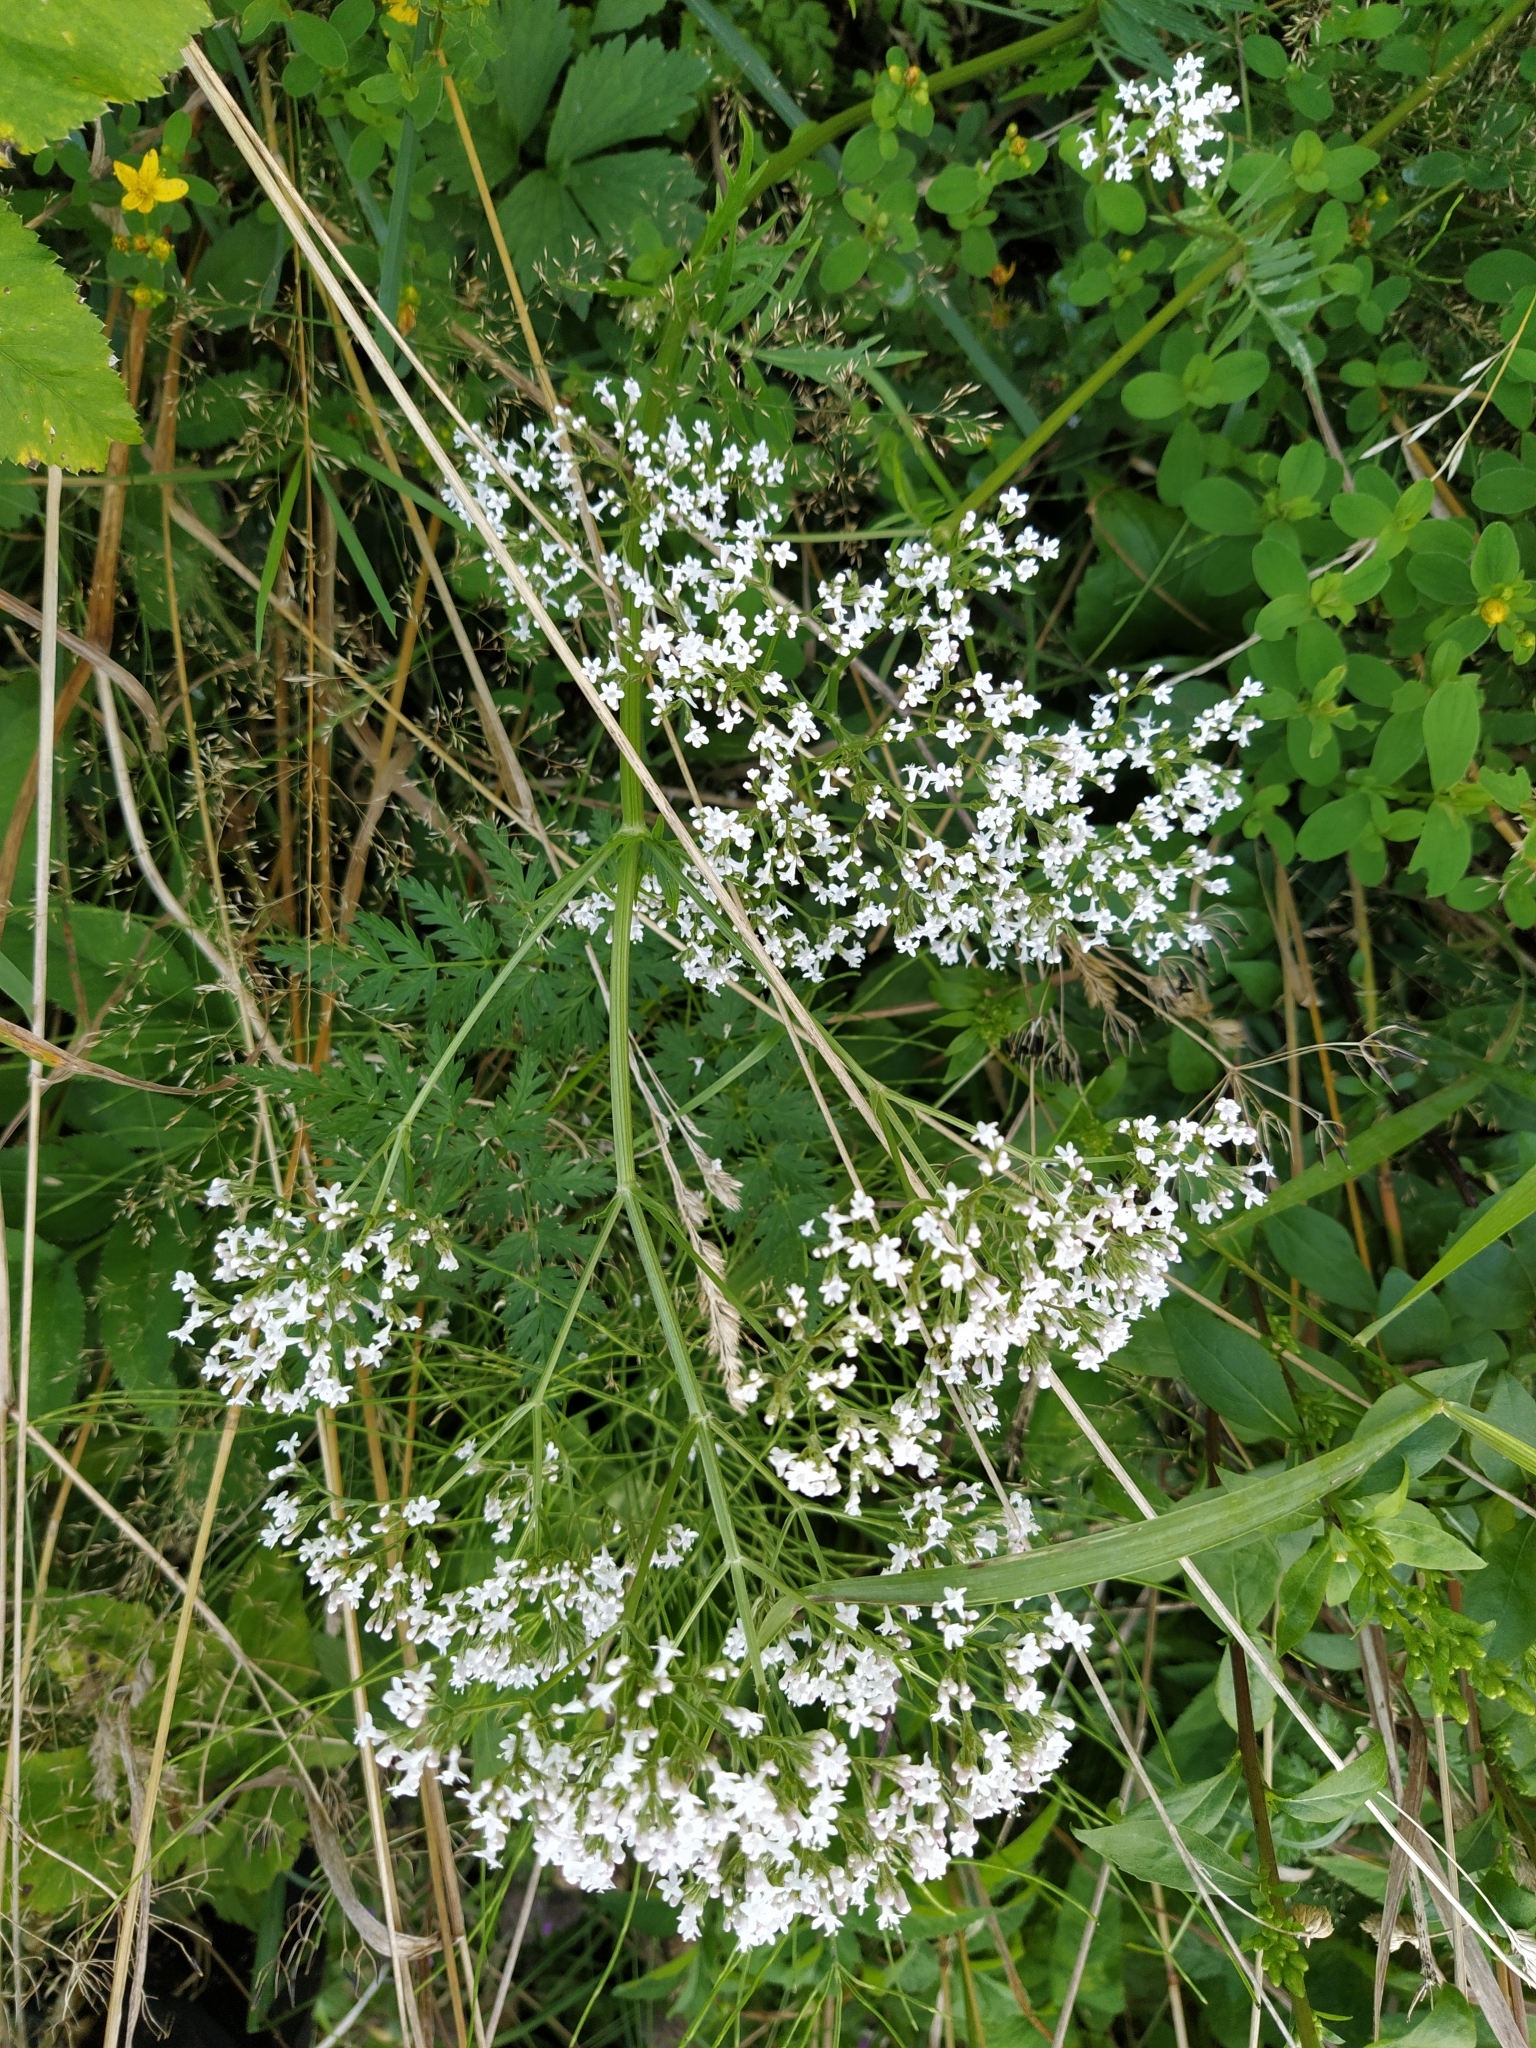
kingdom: Plantae
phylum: Tracheophyta
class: Magnoliopsida
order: Dipsacales
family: Caprifoliaceae
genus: Valeriana
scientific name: Valeriana officinalis
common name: Common valerian
